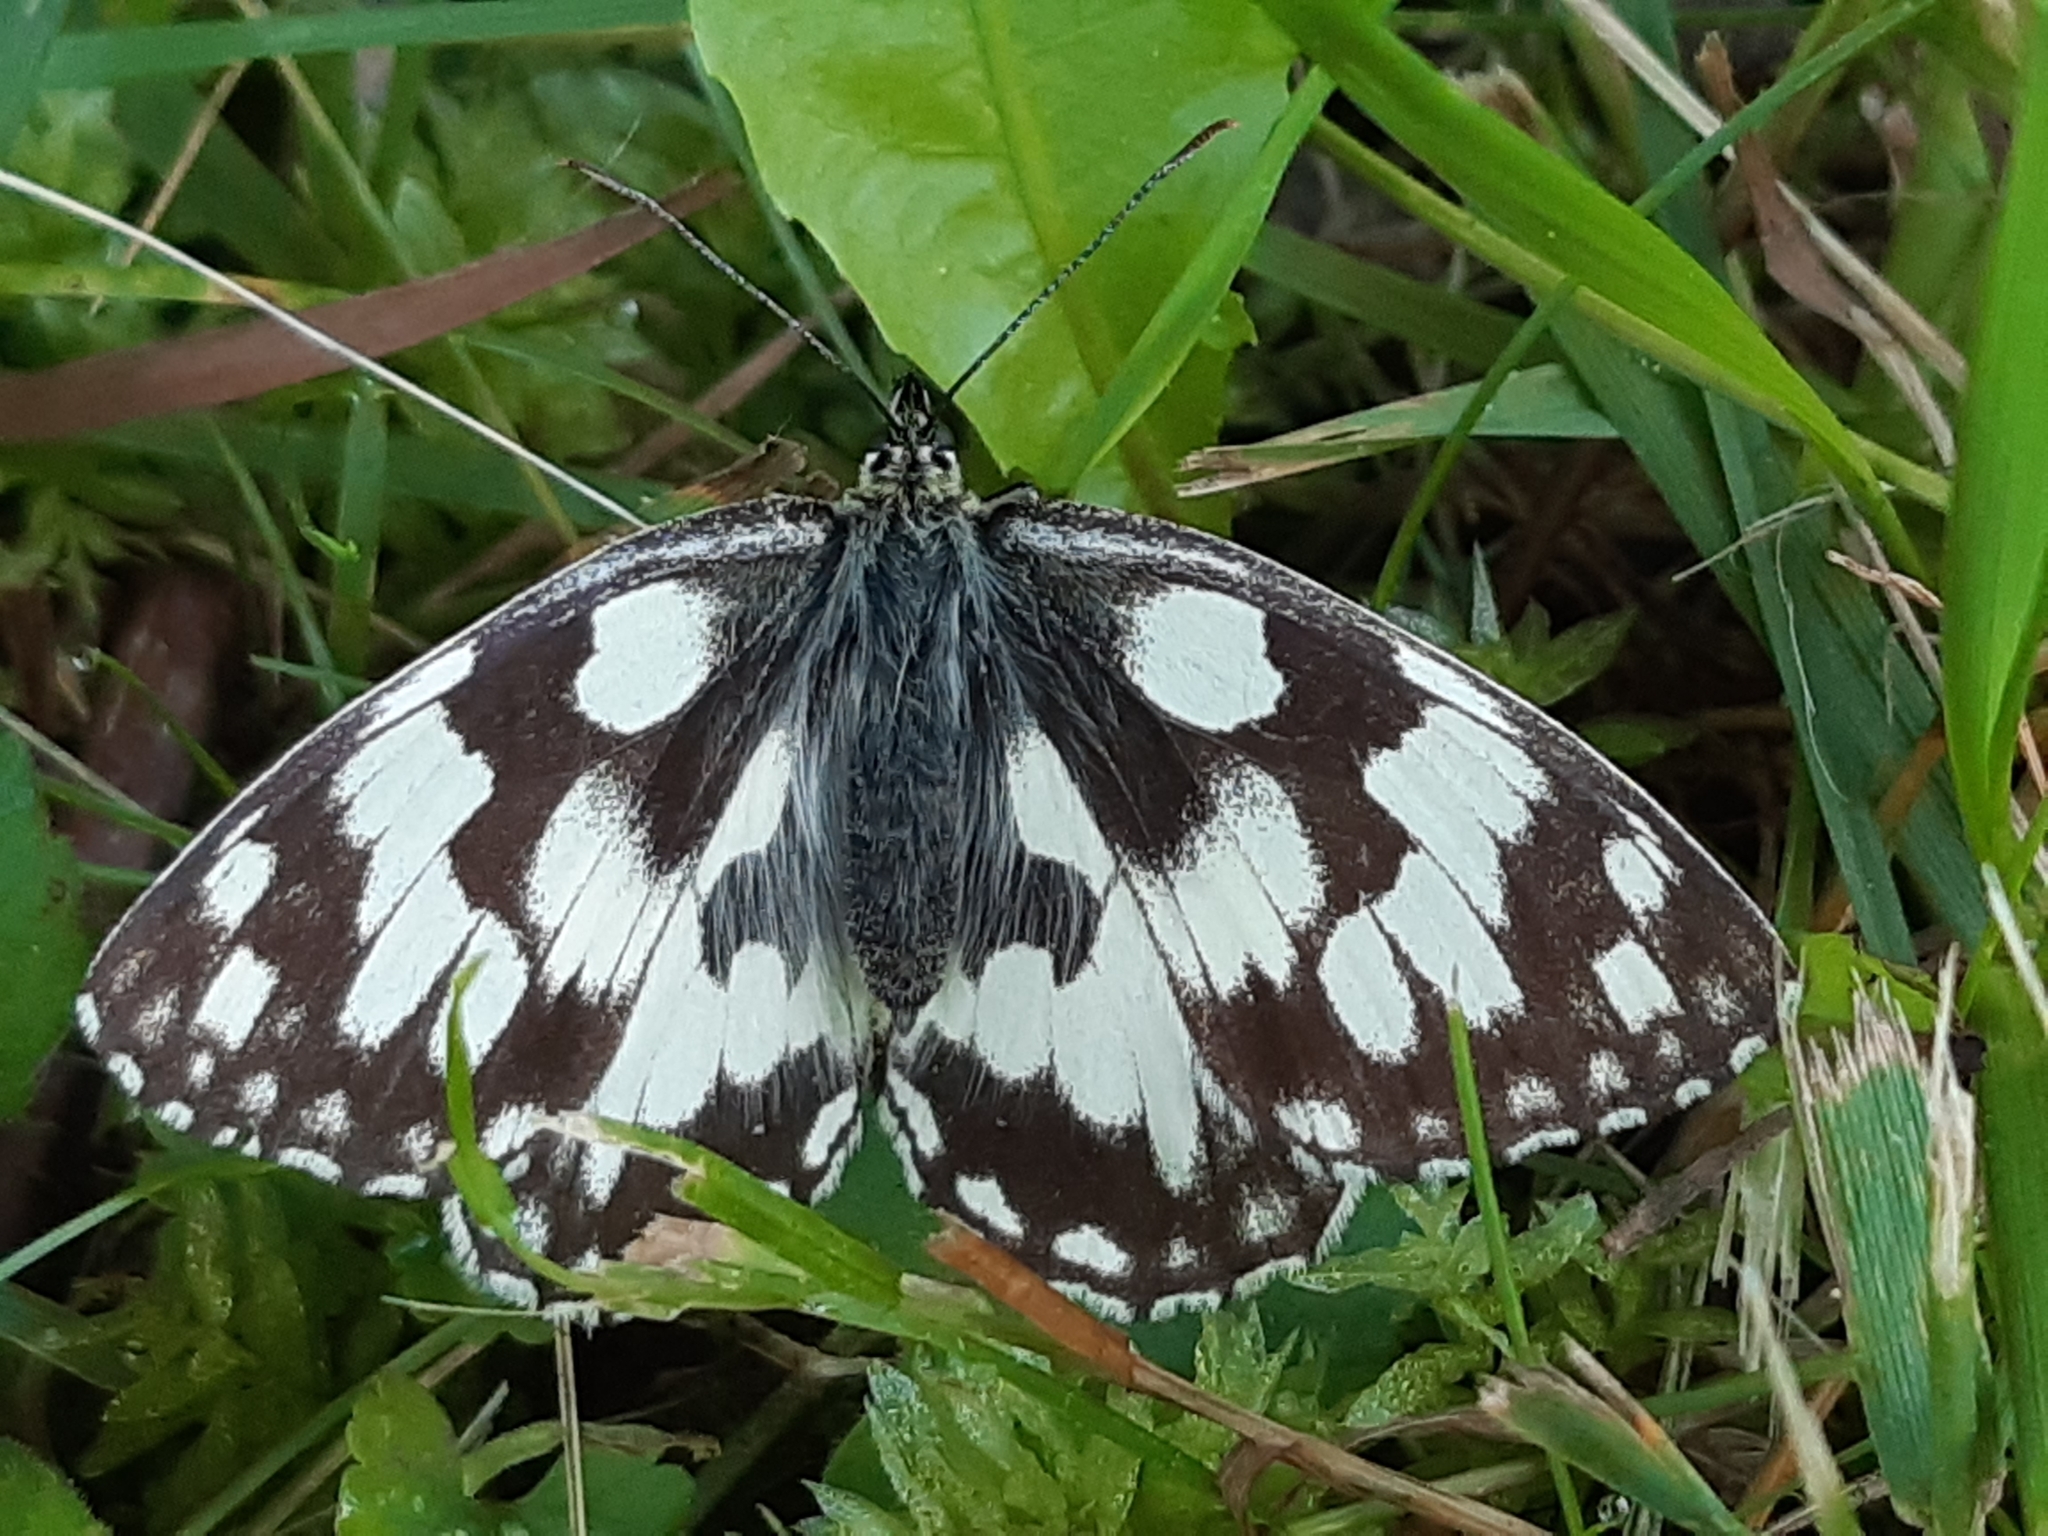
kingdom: Animalia
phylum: Arthropoda
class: Insecta
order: Lepidoptera
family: Nymphalidae
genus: Melanargia
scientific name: Melanargia galathea
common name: Marbled white
